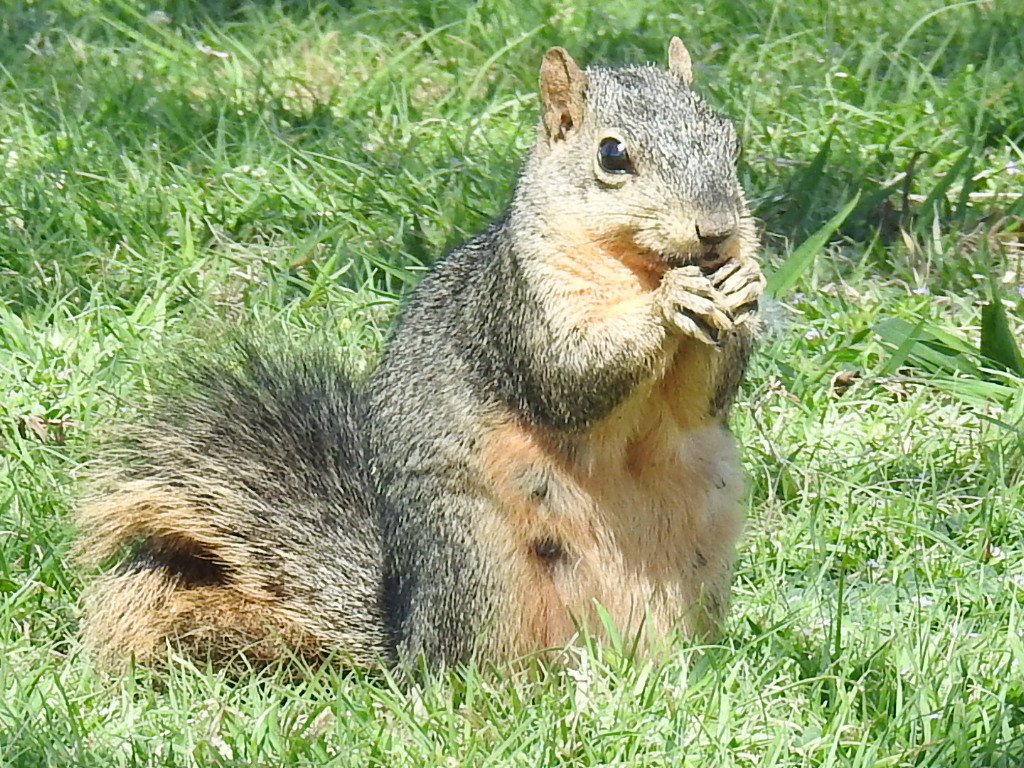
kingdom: Animalia
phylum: Chordata
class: Mammalia
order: Rodentia
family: Sciuridae
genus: Sciurus
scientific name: Sciurus niger
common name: Fox squirrel
